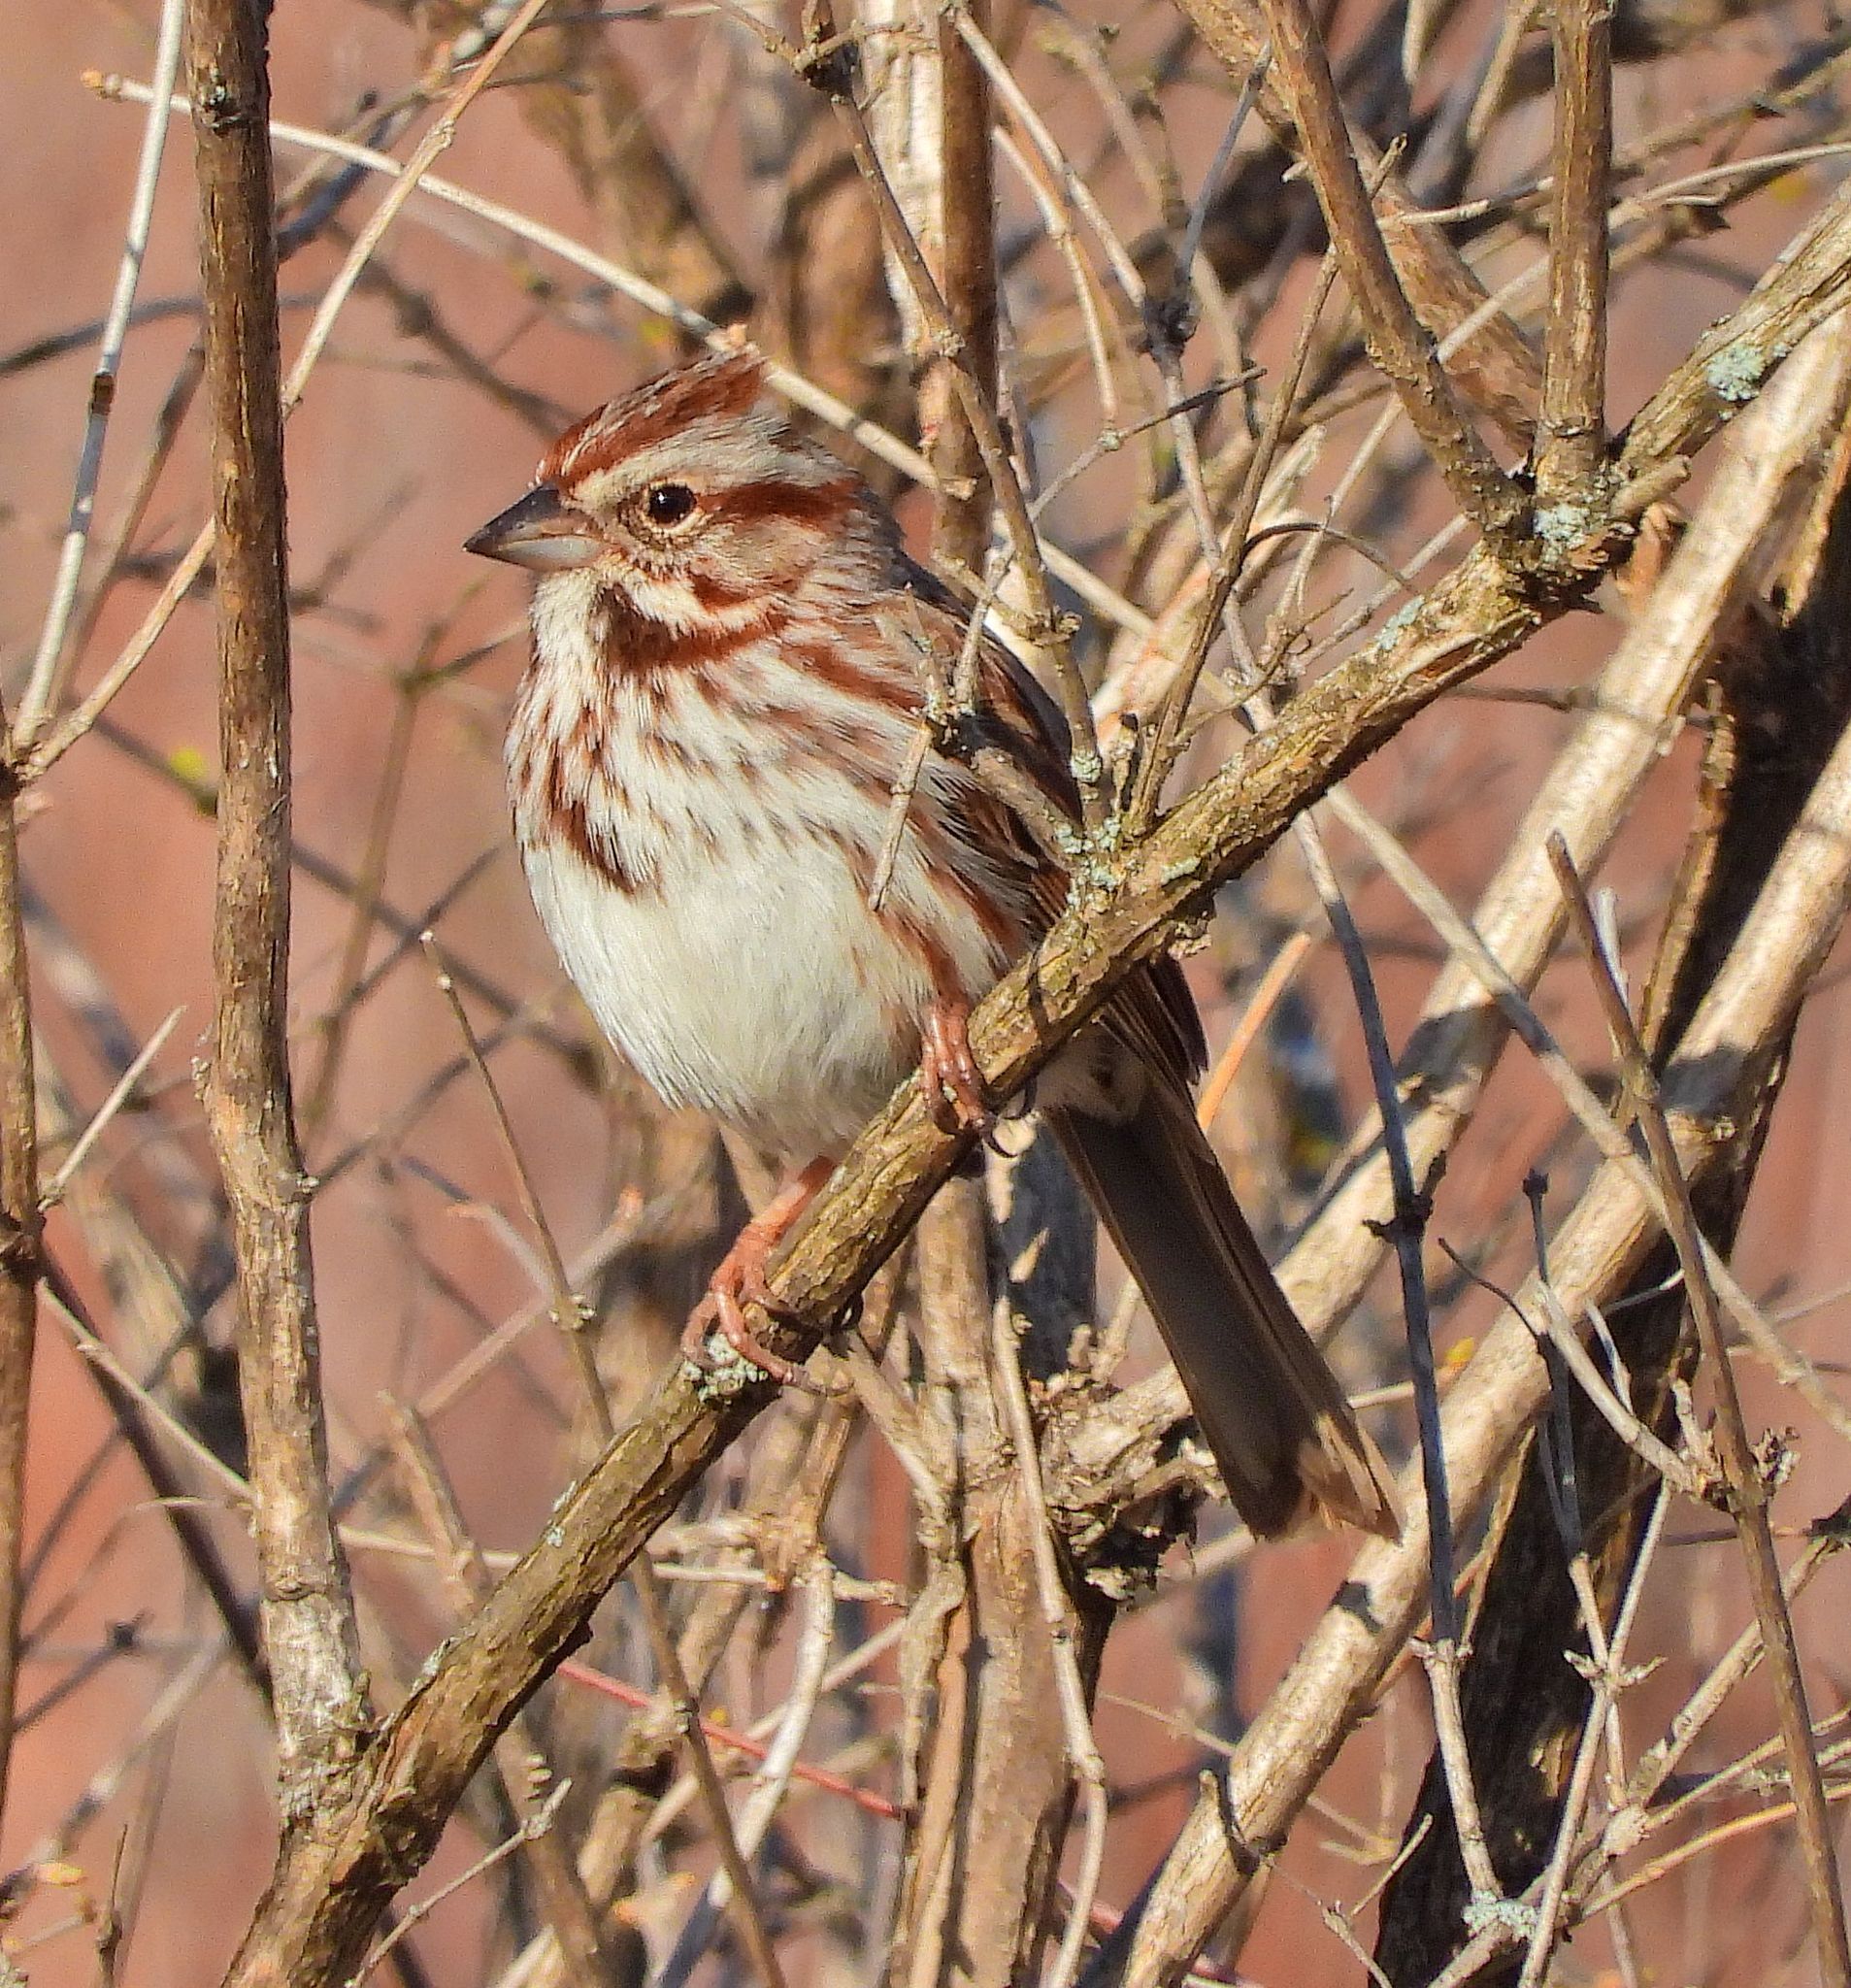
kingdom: Animalia
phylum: Chordata
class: Aves
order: Passeriformes
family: Passerellidae
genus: Melospiza
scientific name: Melospiza melodia
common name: Song sparrow
